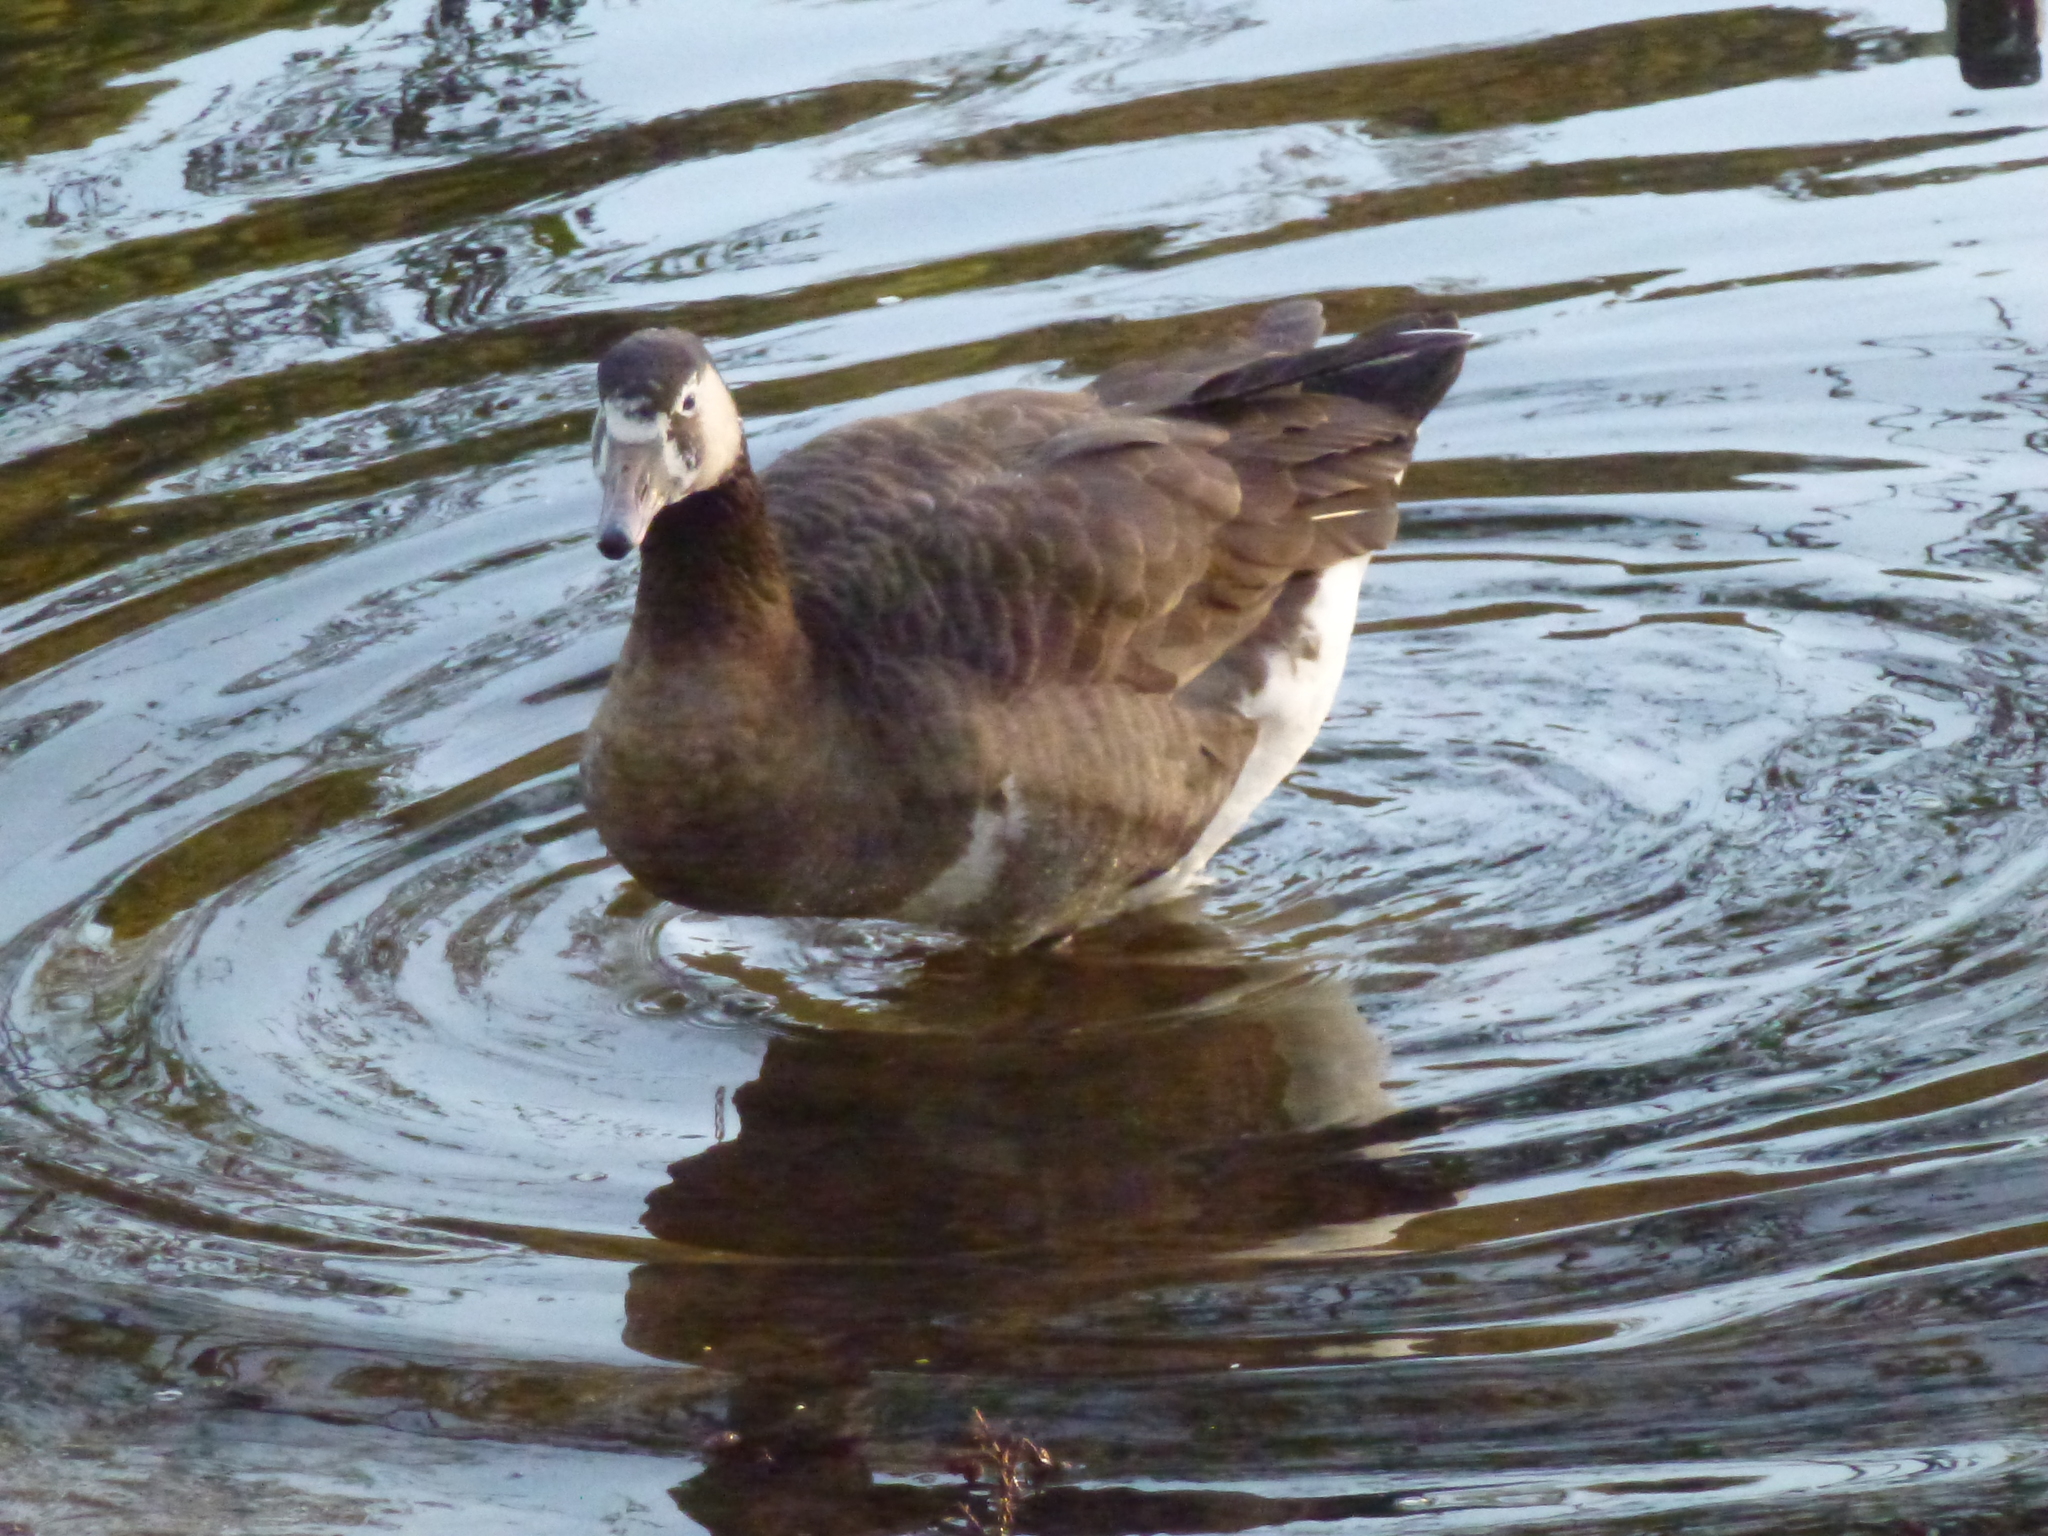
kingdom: Animalia
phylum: Chordata
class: Aves
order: Anseriformes
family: Anatidae
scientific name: Anatidae
